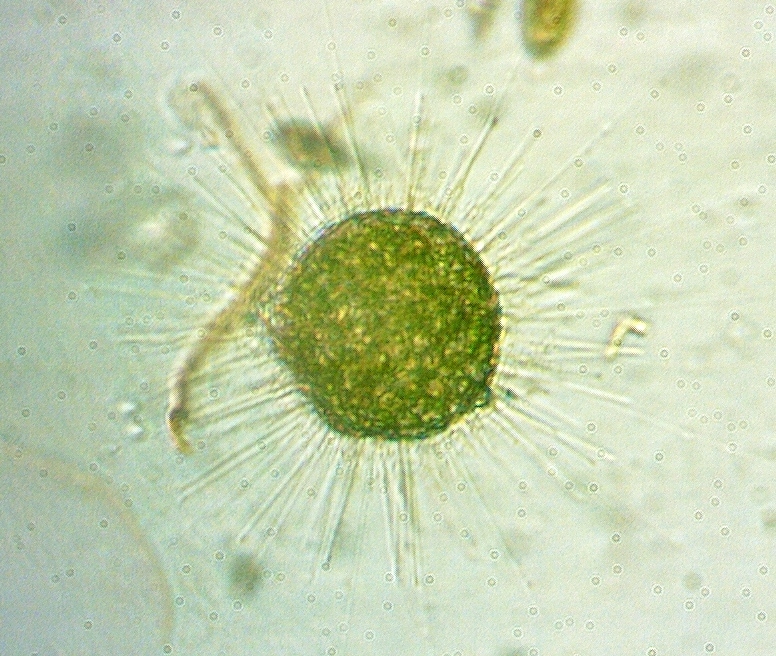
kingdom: Chromista
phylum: Heliozoa
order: Centrohelida
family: Acanthocystidae
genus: Acanthocystis
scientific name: Acanthocystis turfacea
